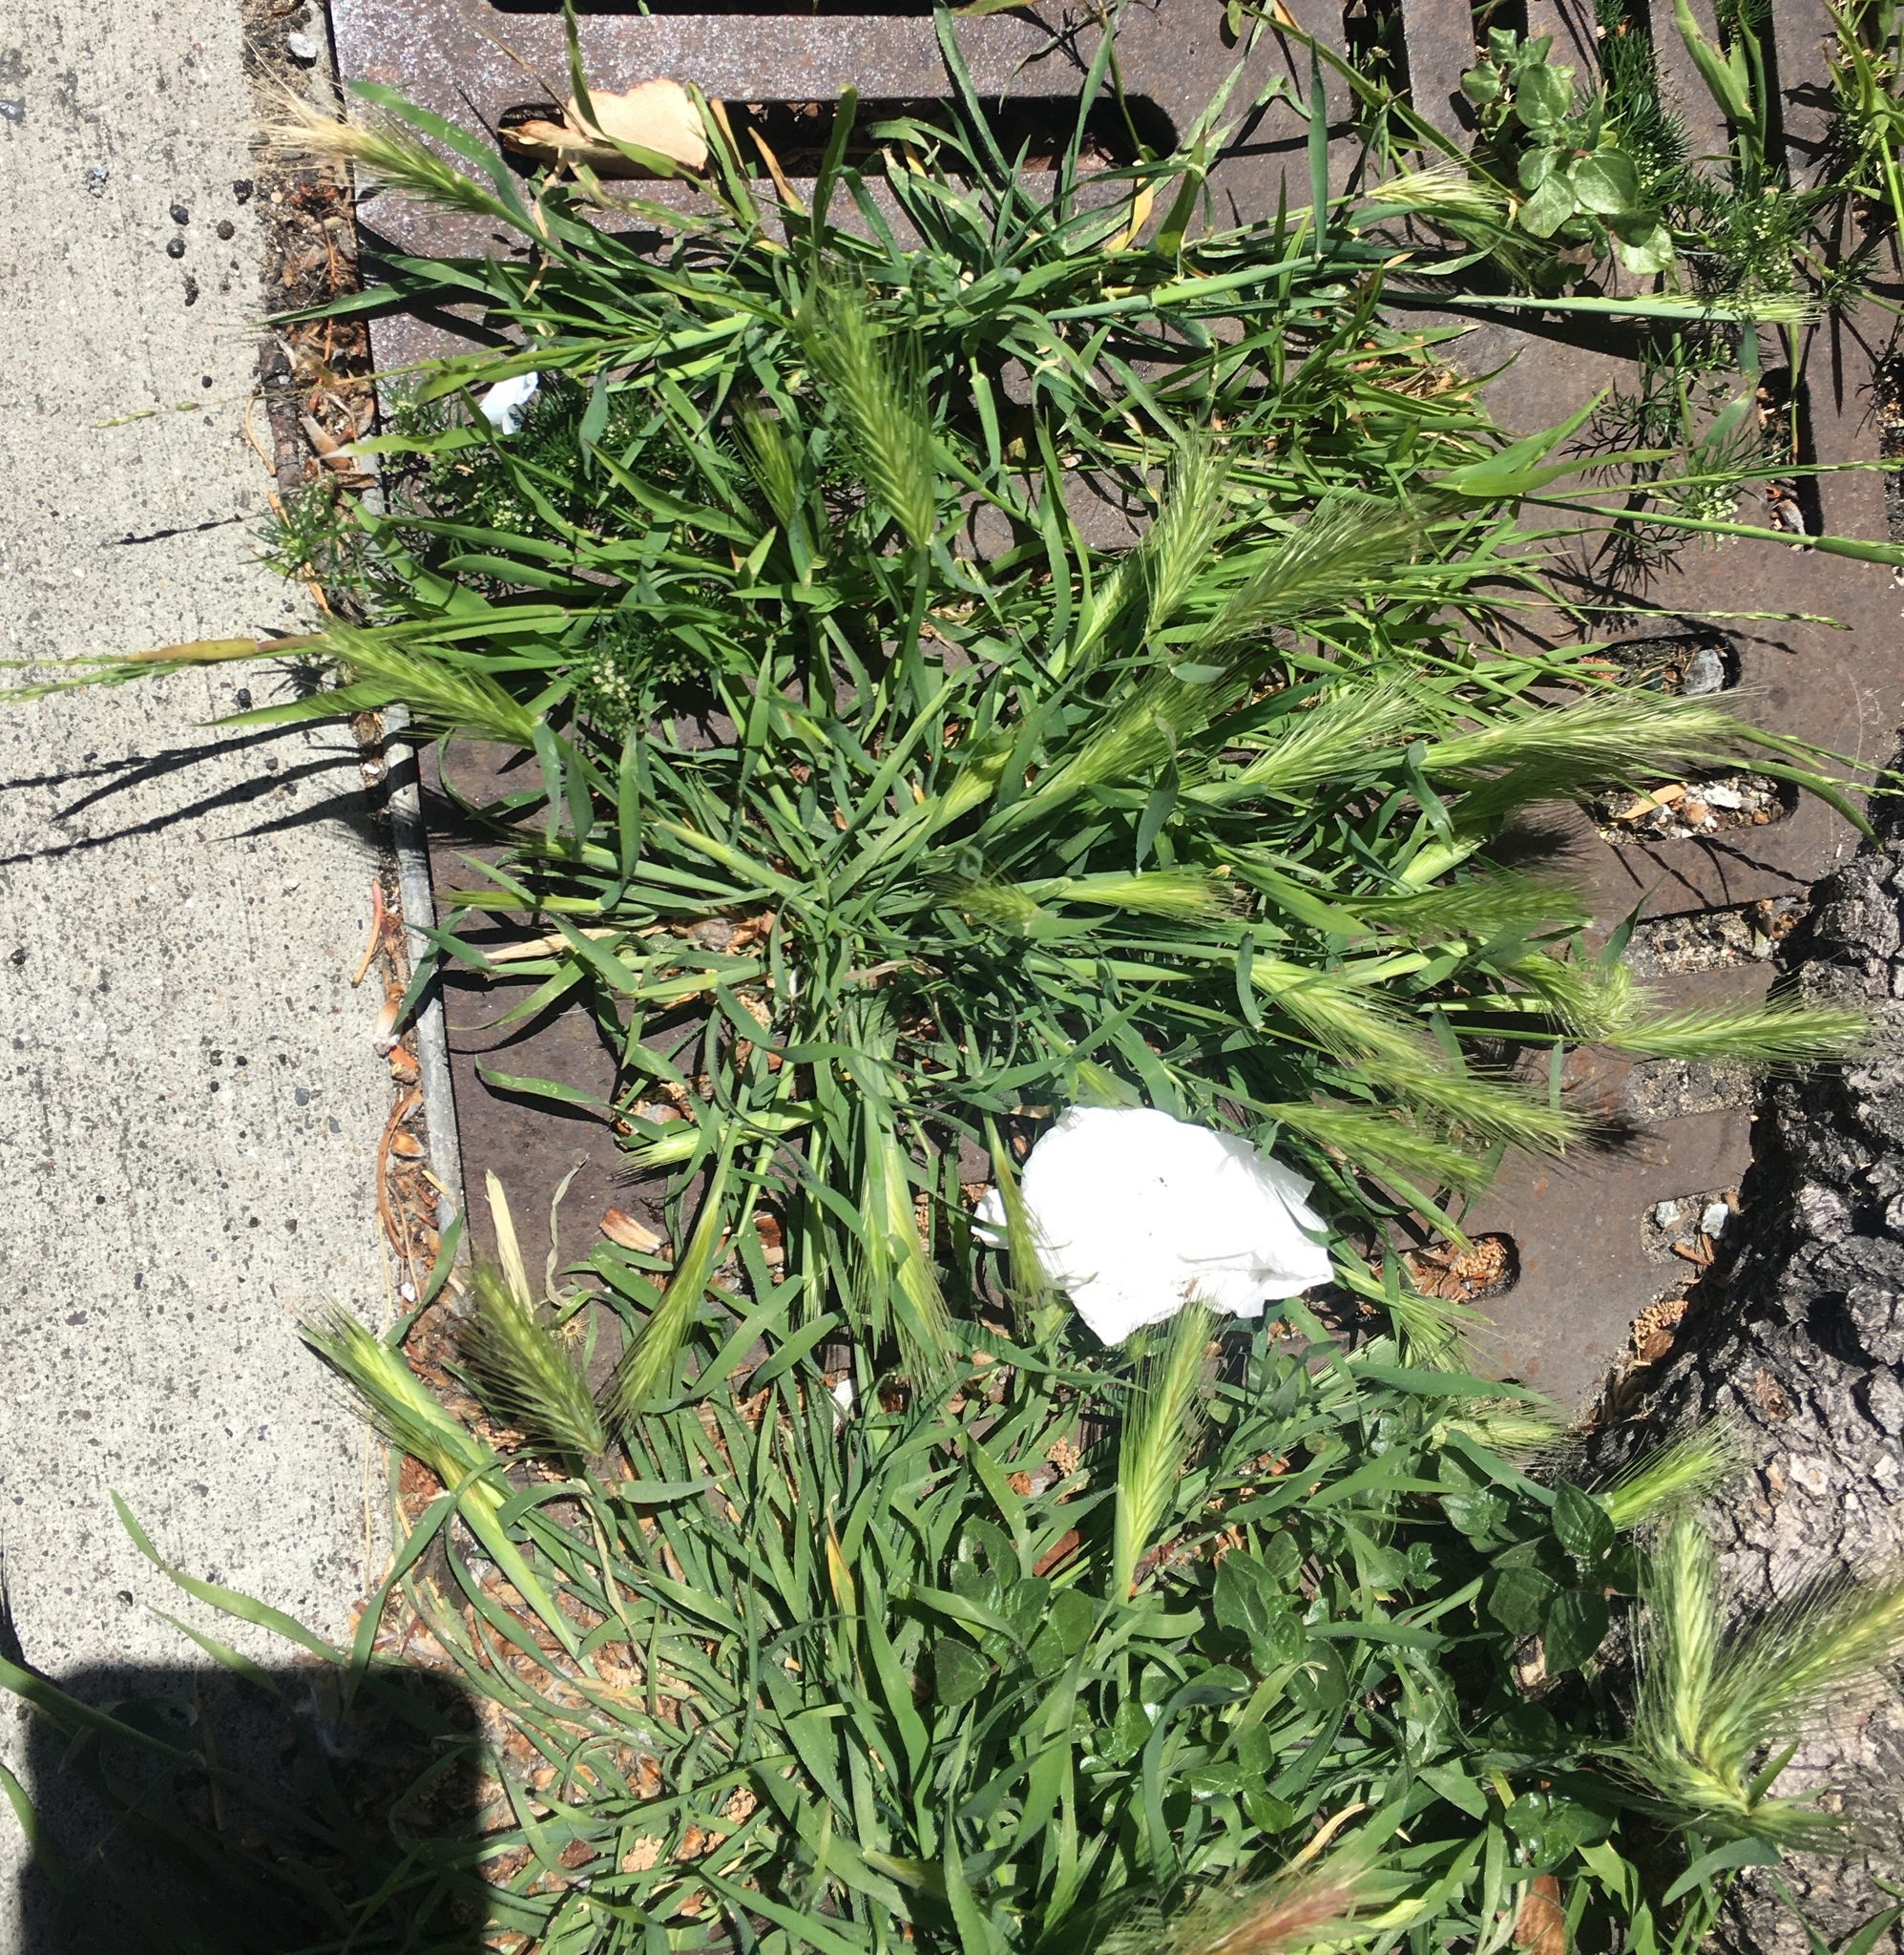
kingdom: Plantae
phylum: Tracheophyta
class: Liliopsida
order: Poales
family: Poaceae
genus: Hordeum
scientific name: Hordeum murinum
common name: Wall barley
